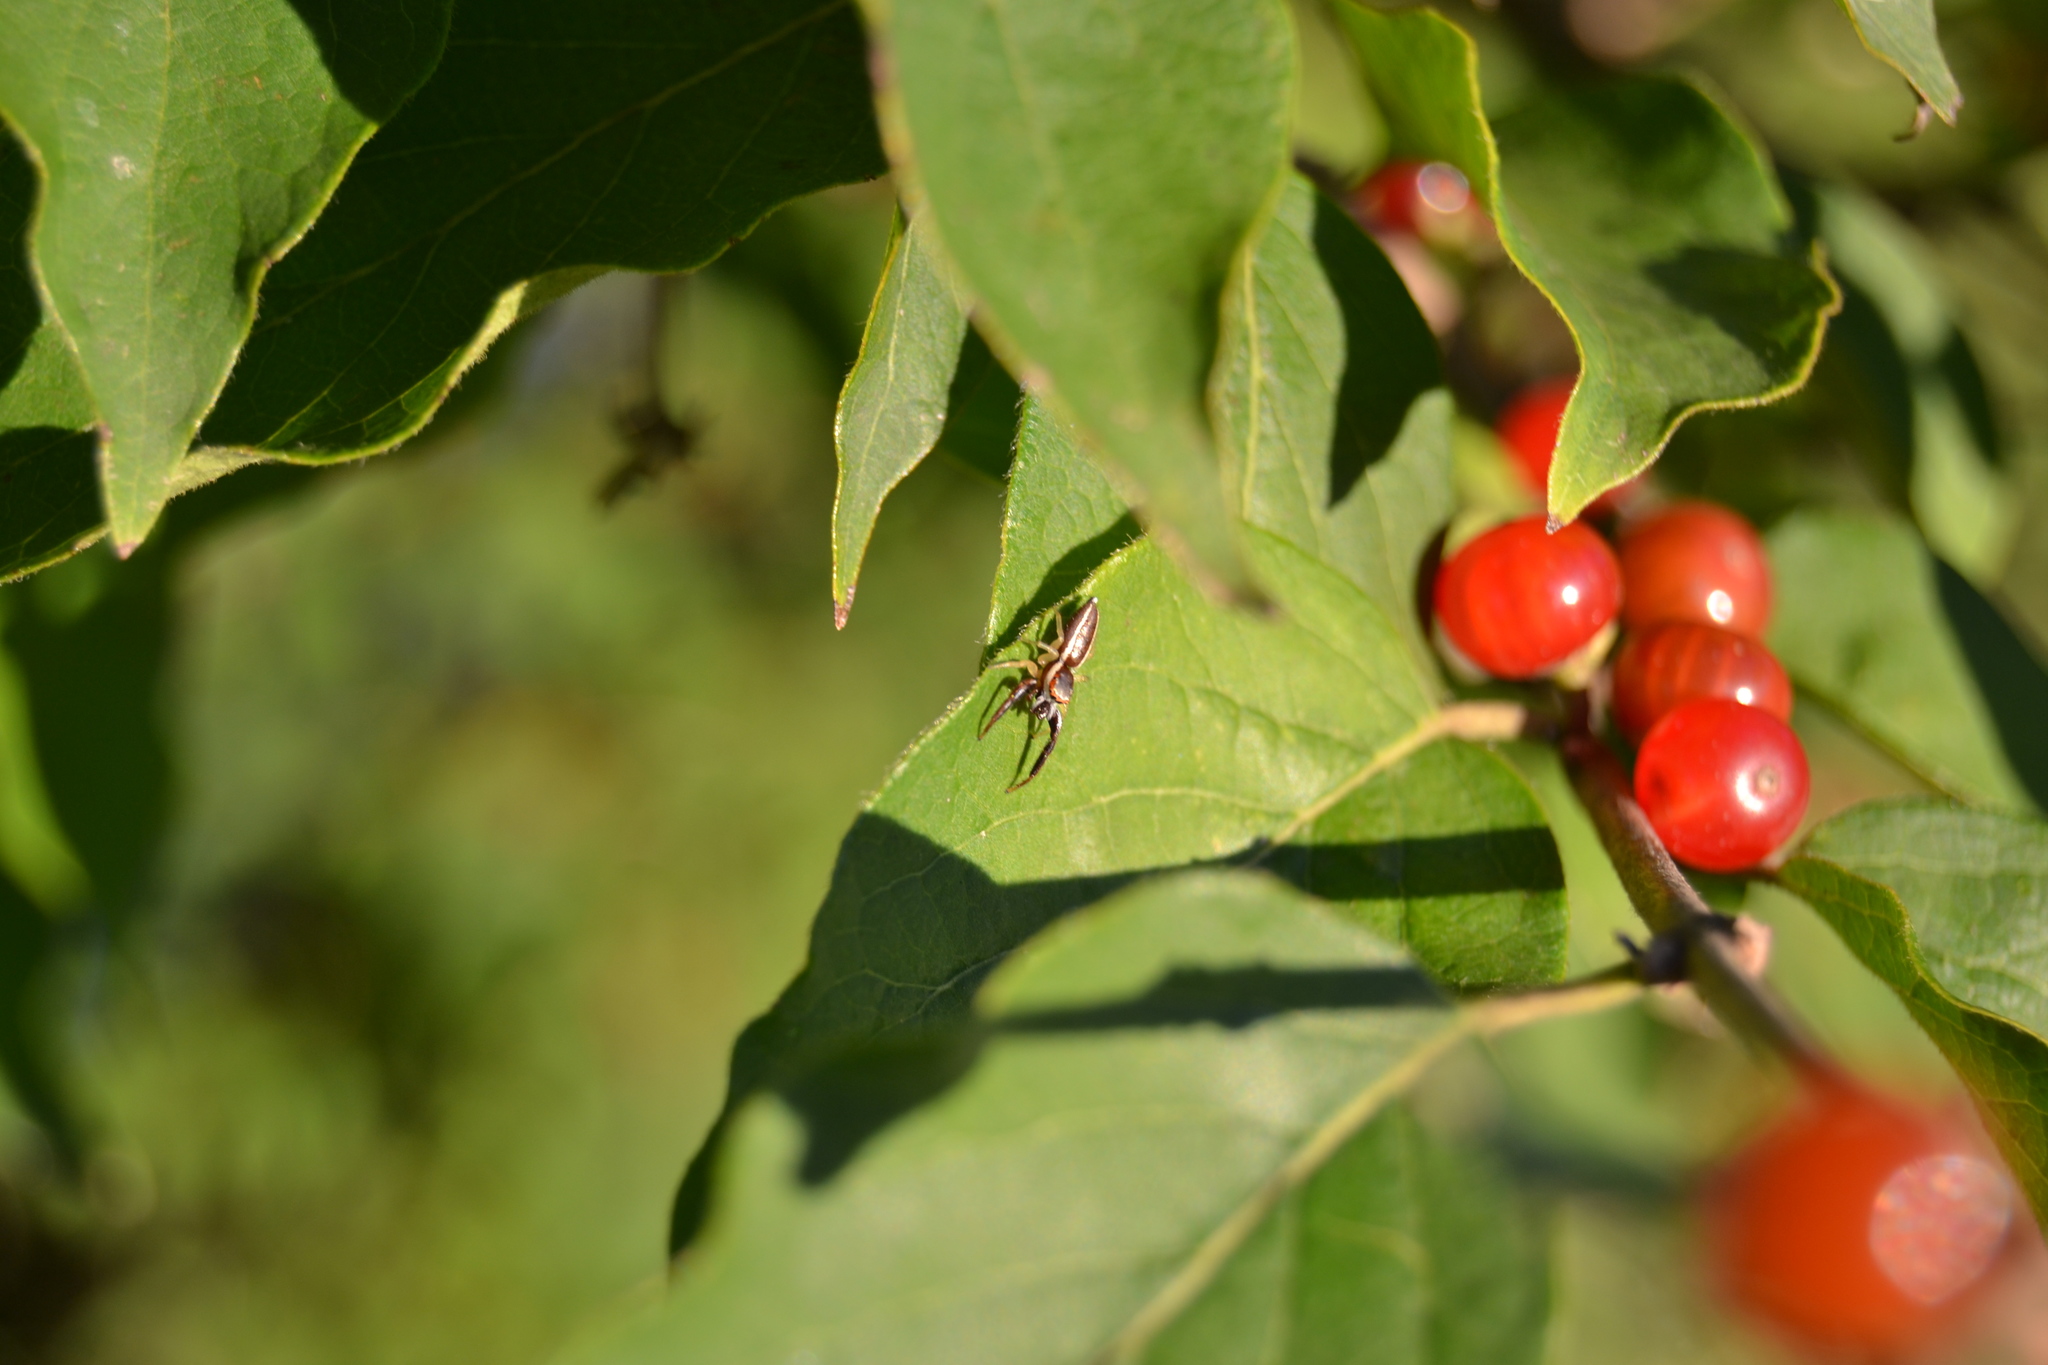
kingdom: Animalia
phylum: Arthropoda
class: Arachnida
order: Araneae
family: Salticidae
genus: Hentzia
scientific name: Hentzia palmarum
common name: Common hentz jumping spider
